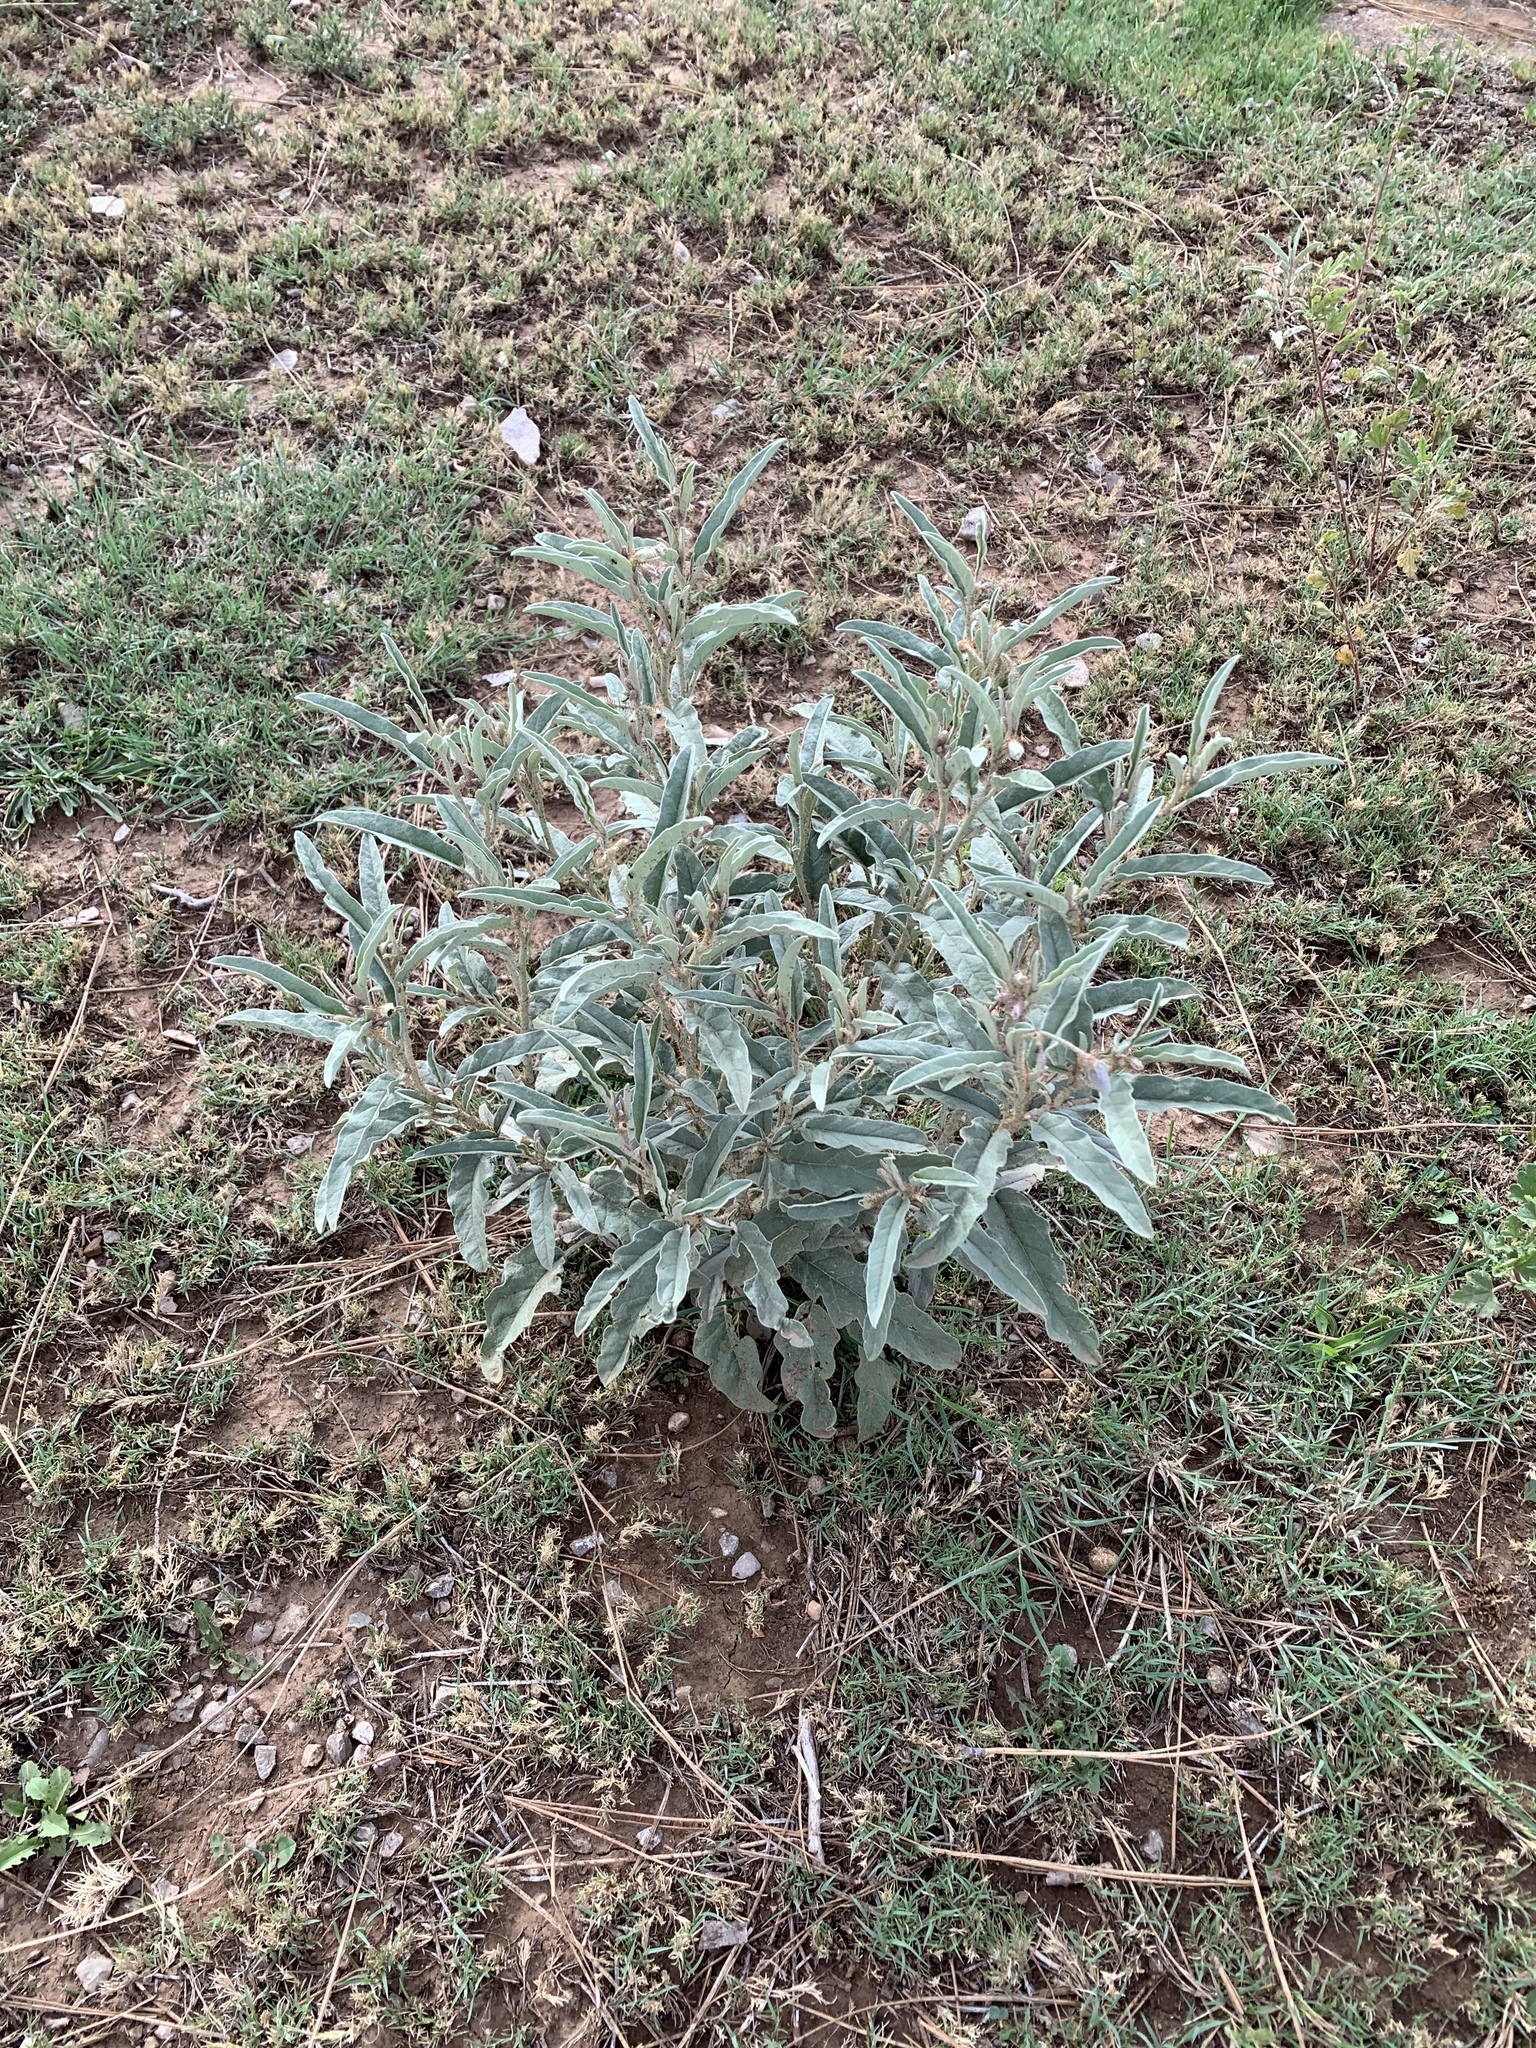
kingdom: Plantae
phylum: Tracheophyta
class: Magnoliopsida
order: Solanales
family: Solanaceae
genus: Solanum
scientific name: Solanum elaeagnifolium
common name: Silverleaf nightshade
